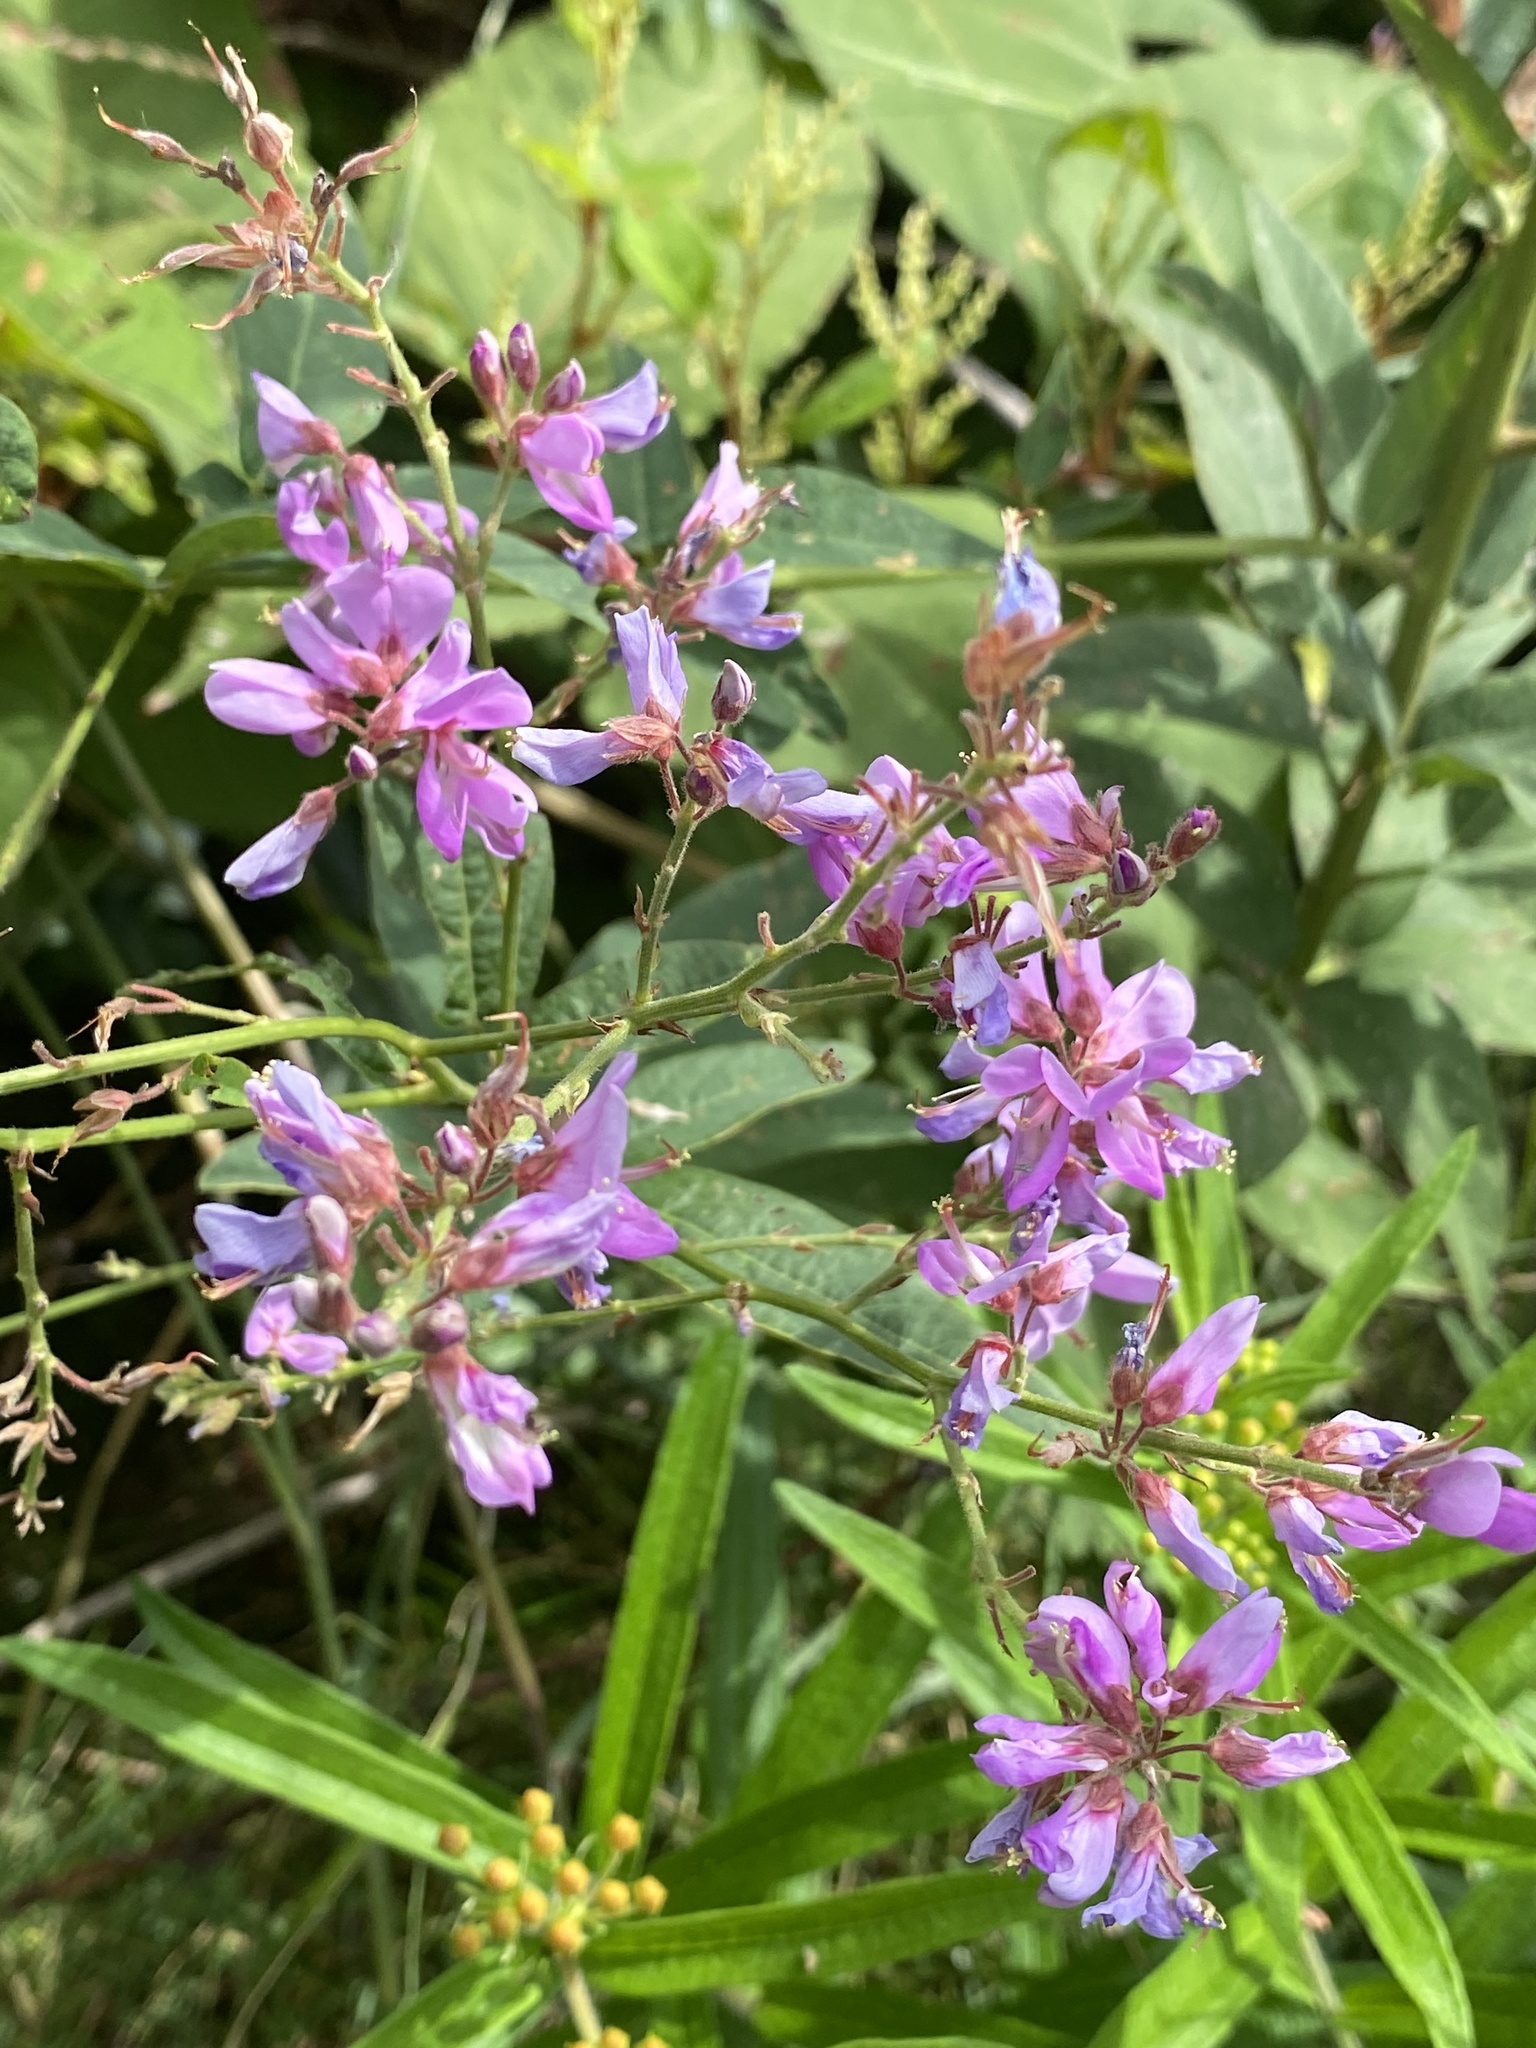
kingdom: Plantae
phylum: Tracheophyta
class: Magnoliopsida
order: Fabales
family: Fabaceae
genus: Desmodium
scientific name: Desmodium canadense
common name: Canada tick-trefoil
